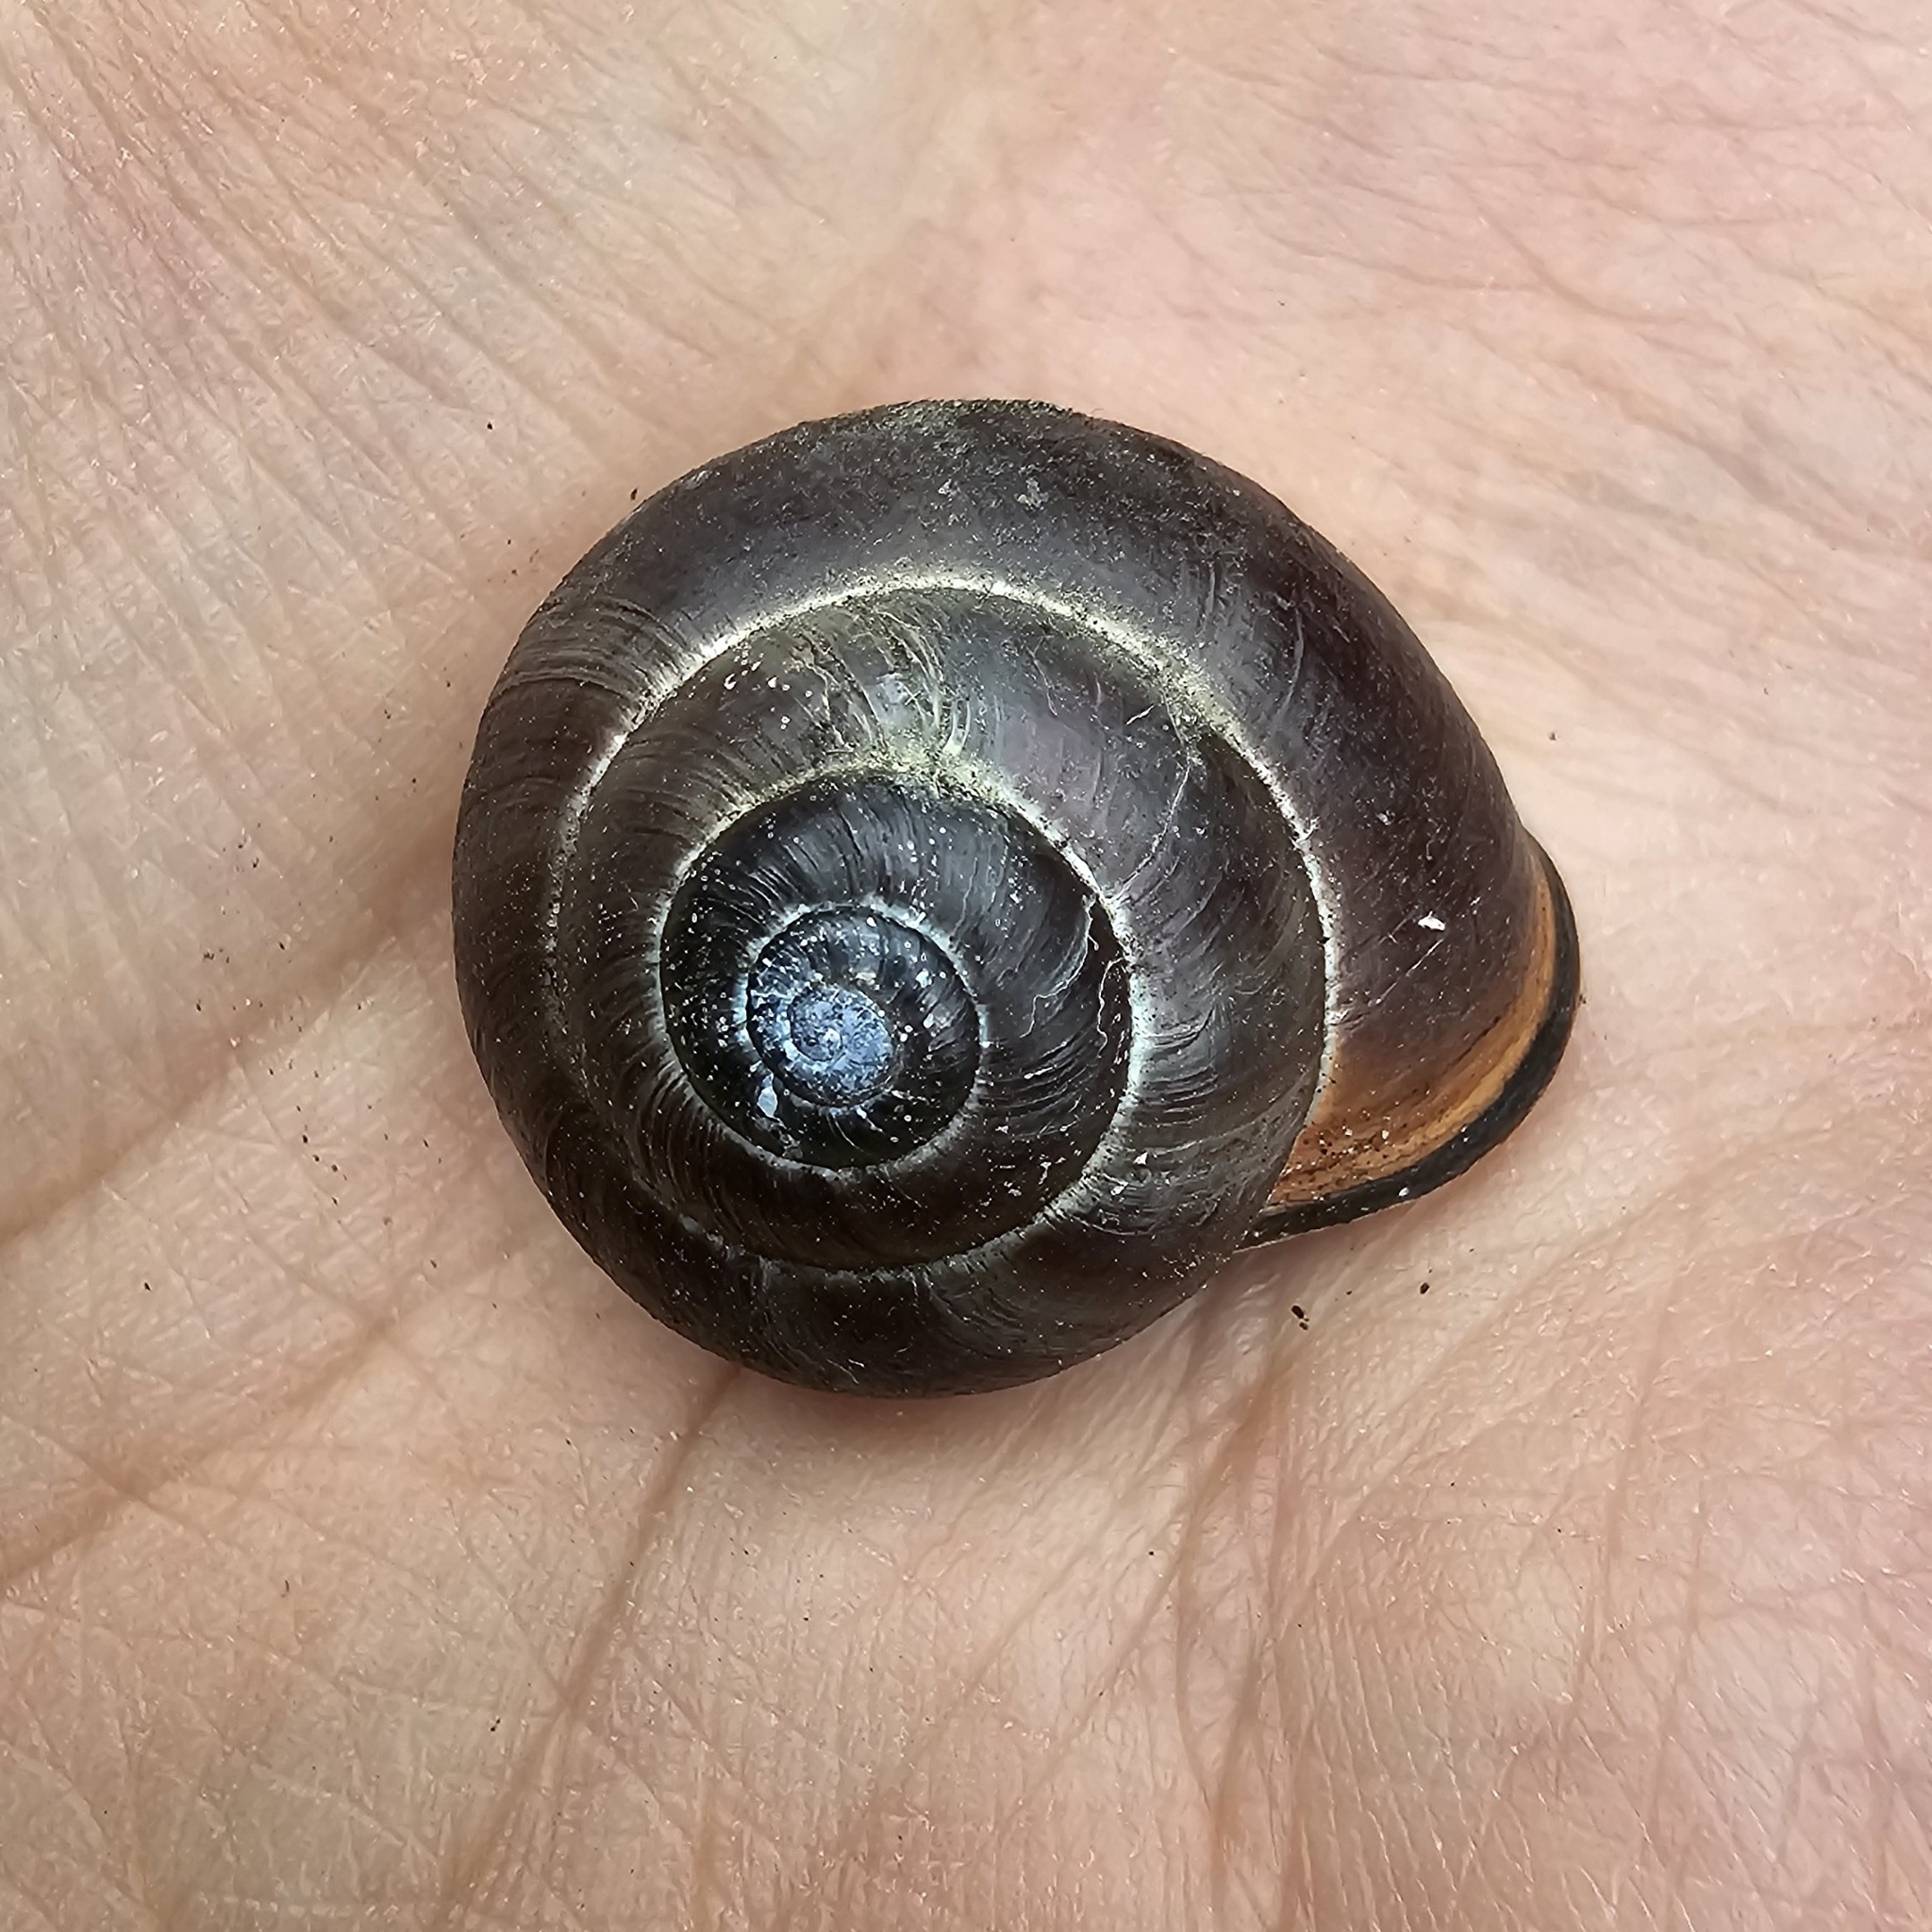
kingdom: Animalia
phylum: Mollusca
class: Gastropoda
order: Stylommatophora
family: Helicidae
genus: Cepaea
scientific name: Cepaea nemoralis
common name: Grovesnail
